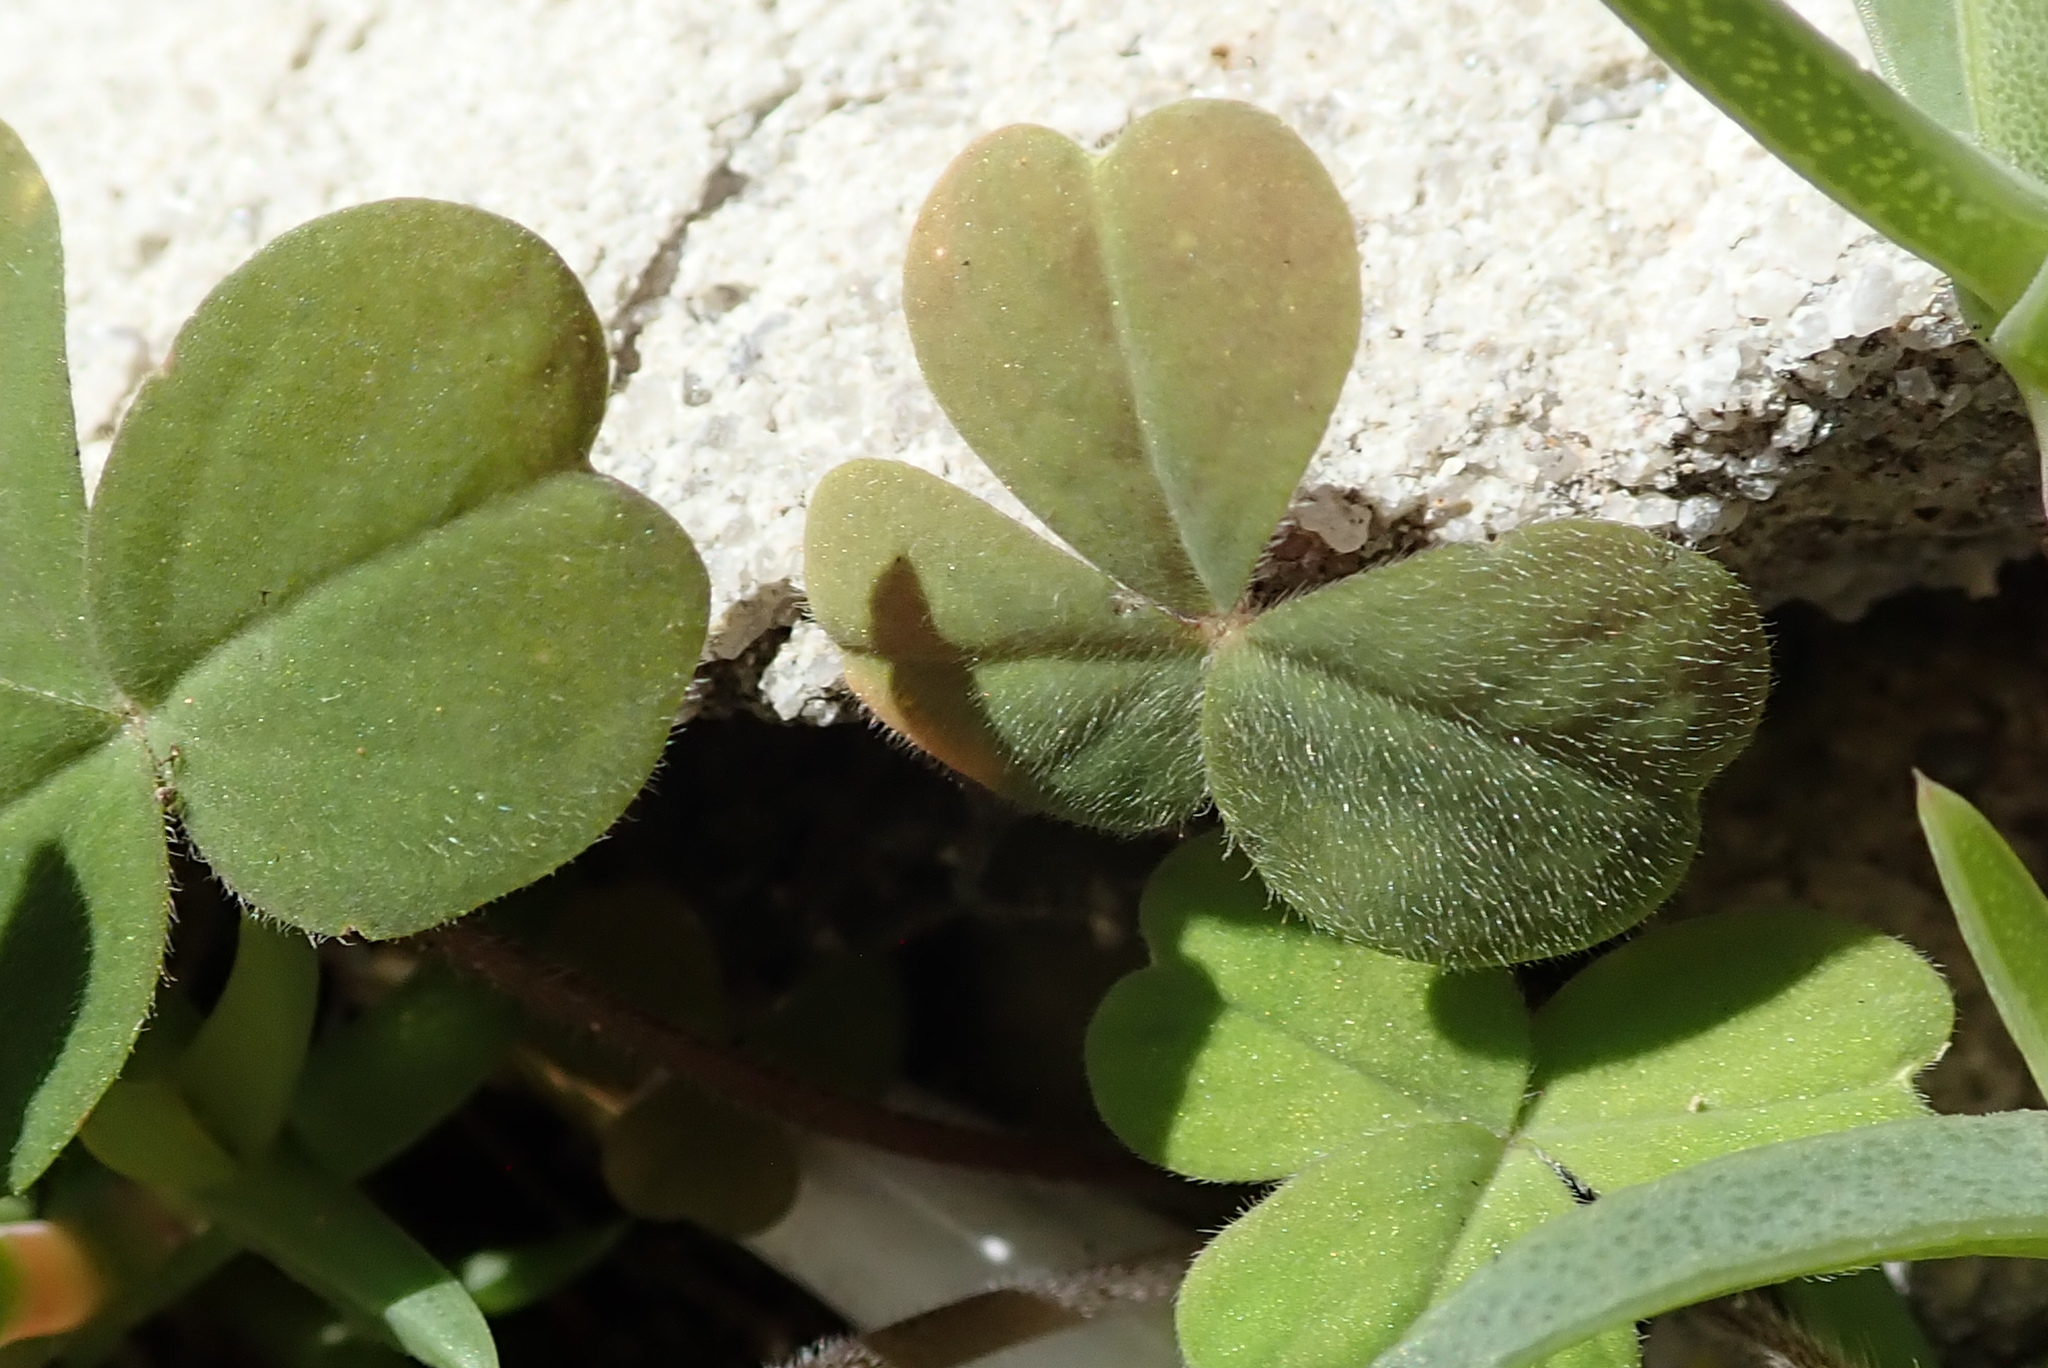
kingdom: Plantae
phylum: Tracheophyta
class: Magnoliopsida
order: Oxalidales
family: Oxalidaceae
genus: Oxalis
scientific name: Oxalis obtusa
